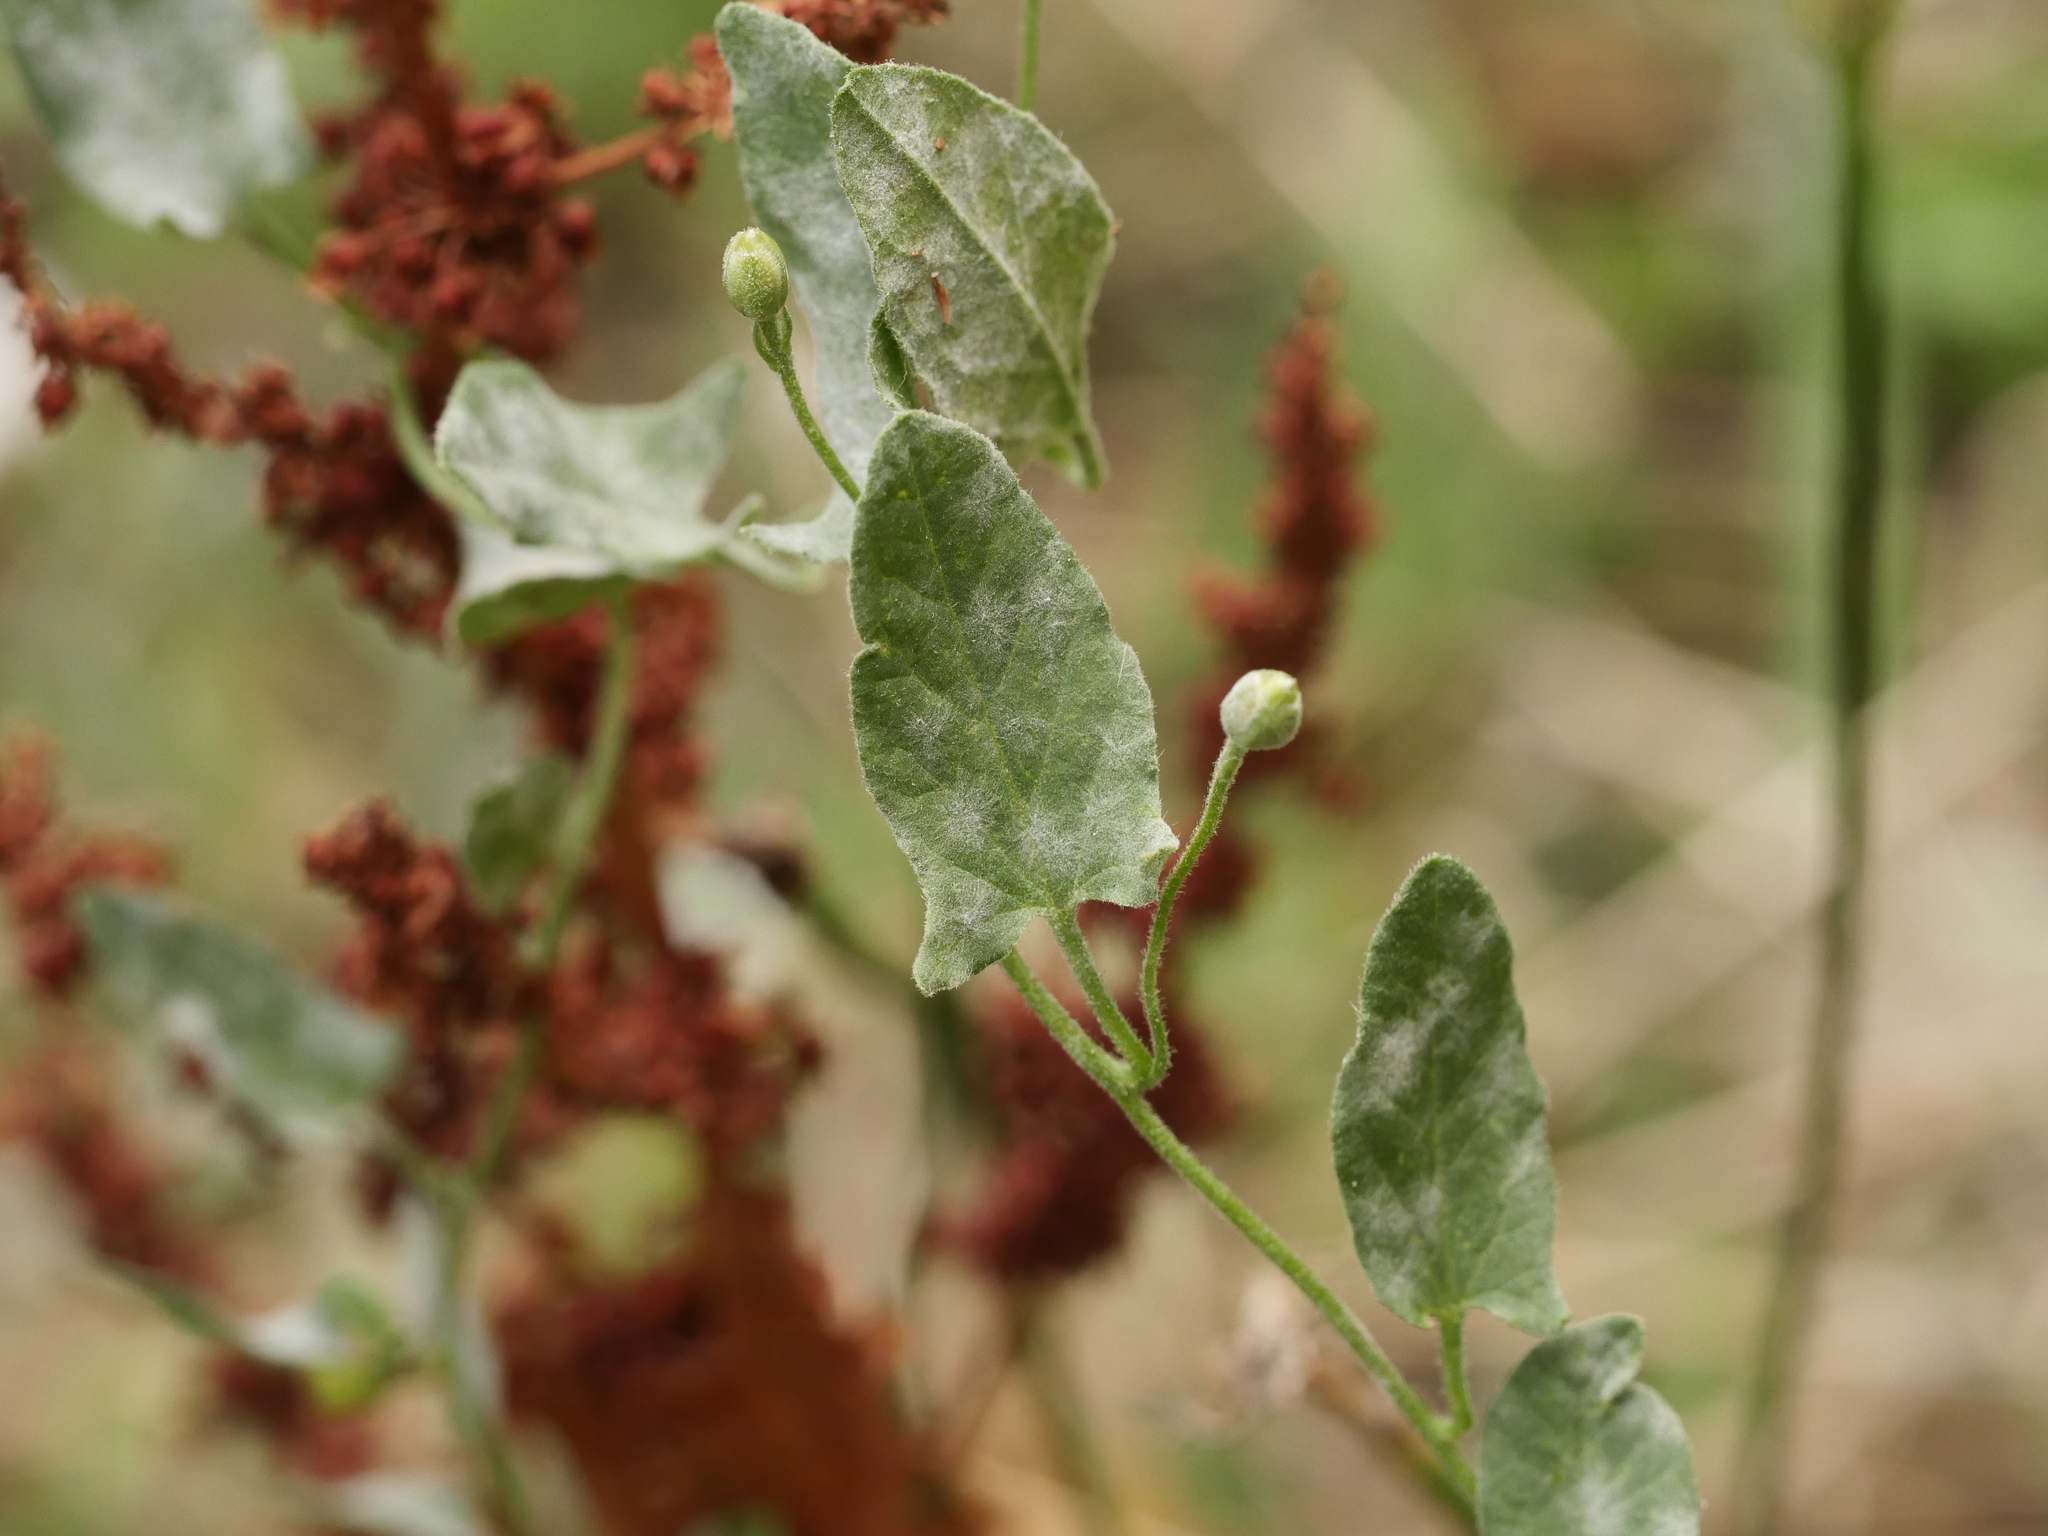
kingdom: Fungi
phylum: Ascomycota
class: Leotiomycetes
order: Helotiales
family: Erysiphaceae
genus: Erysiphe
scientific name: Erysiphe convolvuli
